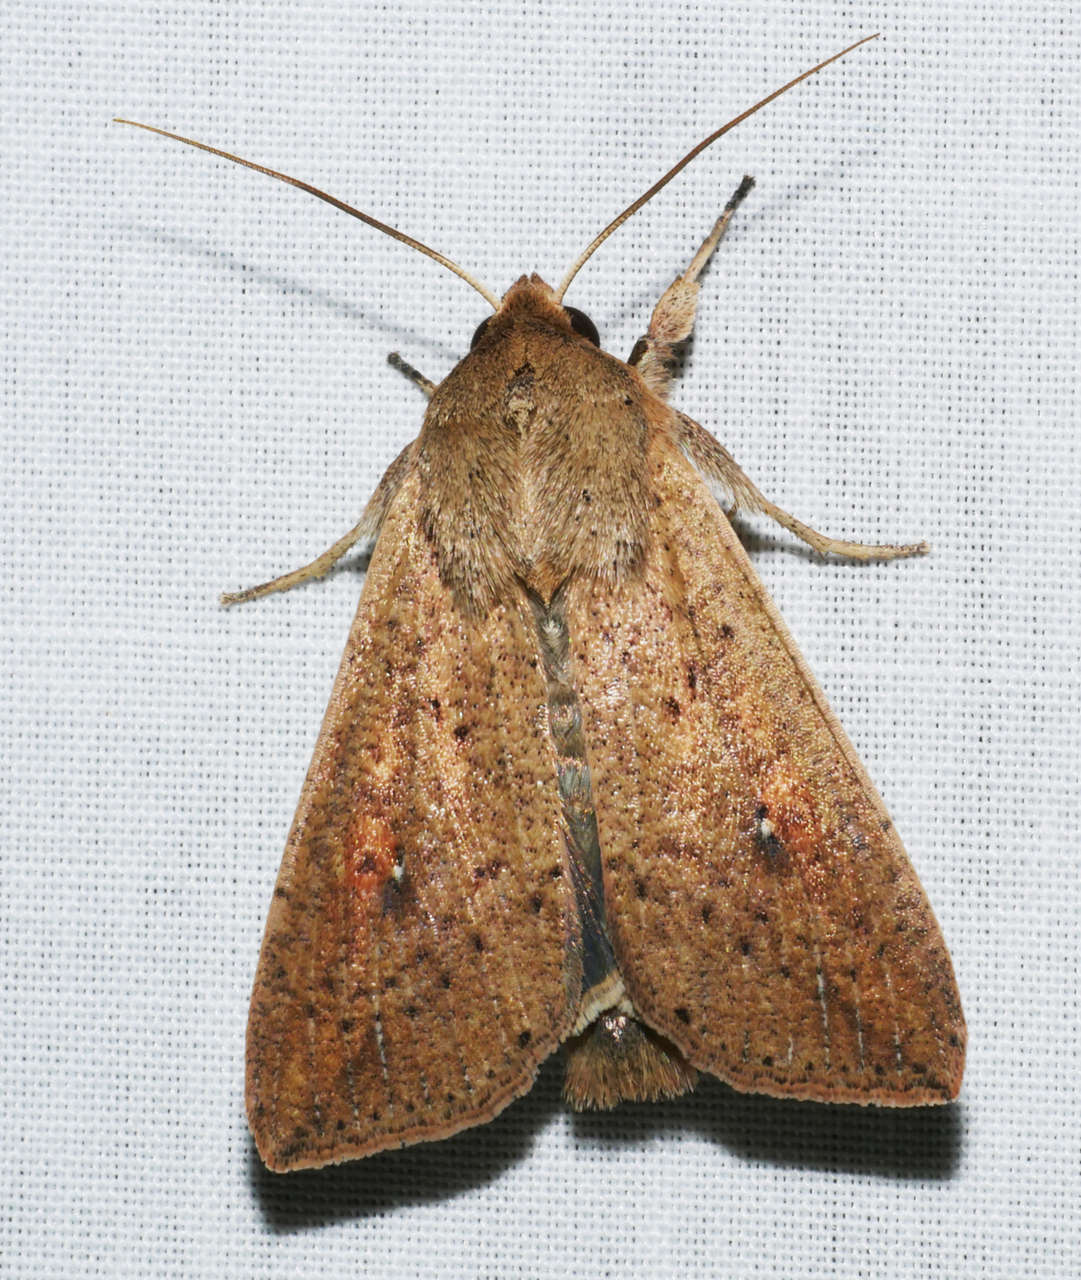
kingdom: Animalia
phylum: Arthropoda
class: Insecta
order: Lepidoptera
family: Noctuidae
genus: Mythimna
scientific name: Mythimna convecta
